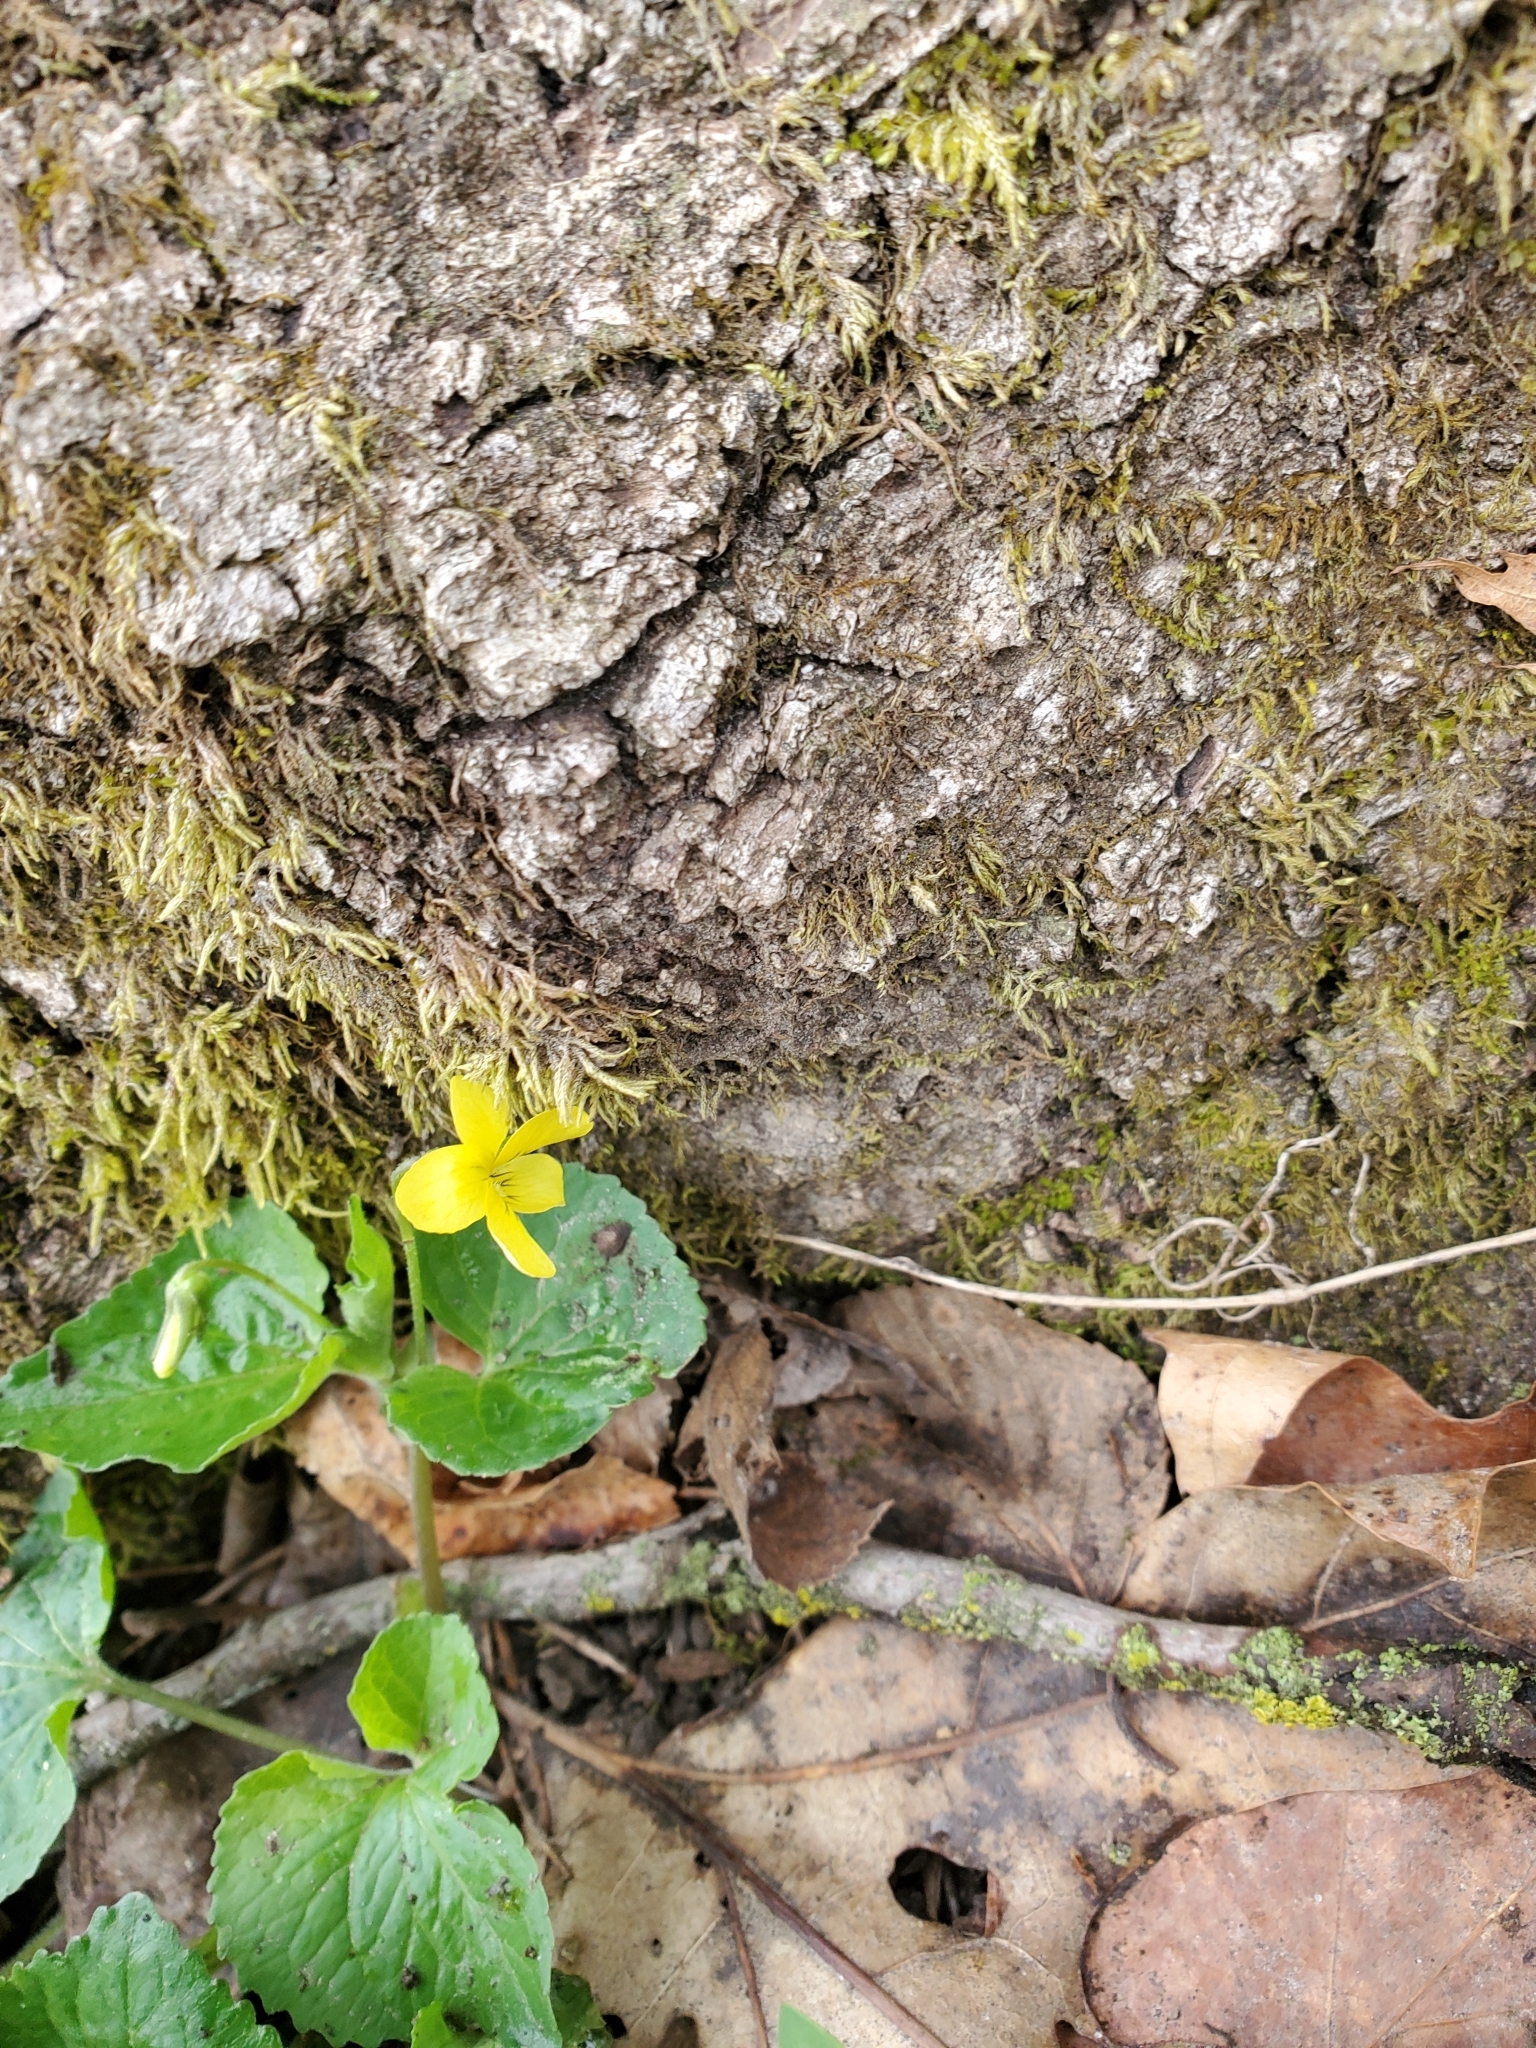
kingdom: Plantae
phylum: Tracheophyta
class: Magnoliopsida
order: Malpighiales
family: Violaceae
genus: Viola
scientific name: Viola eriocarpa
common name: Smooth yellow violet
